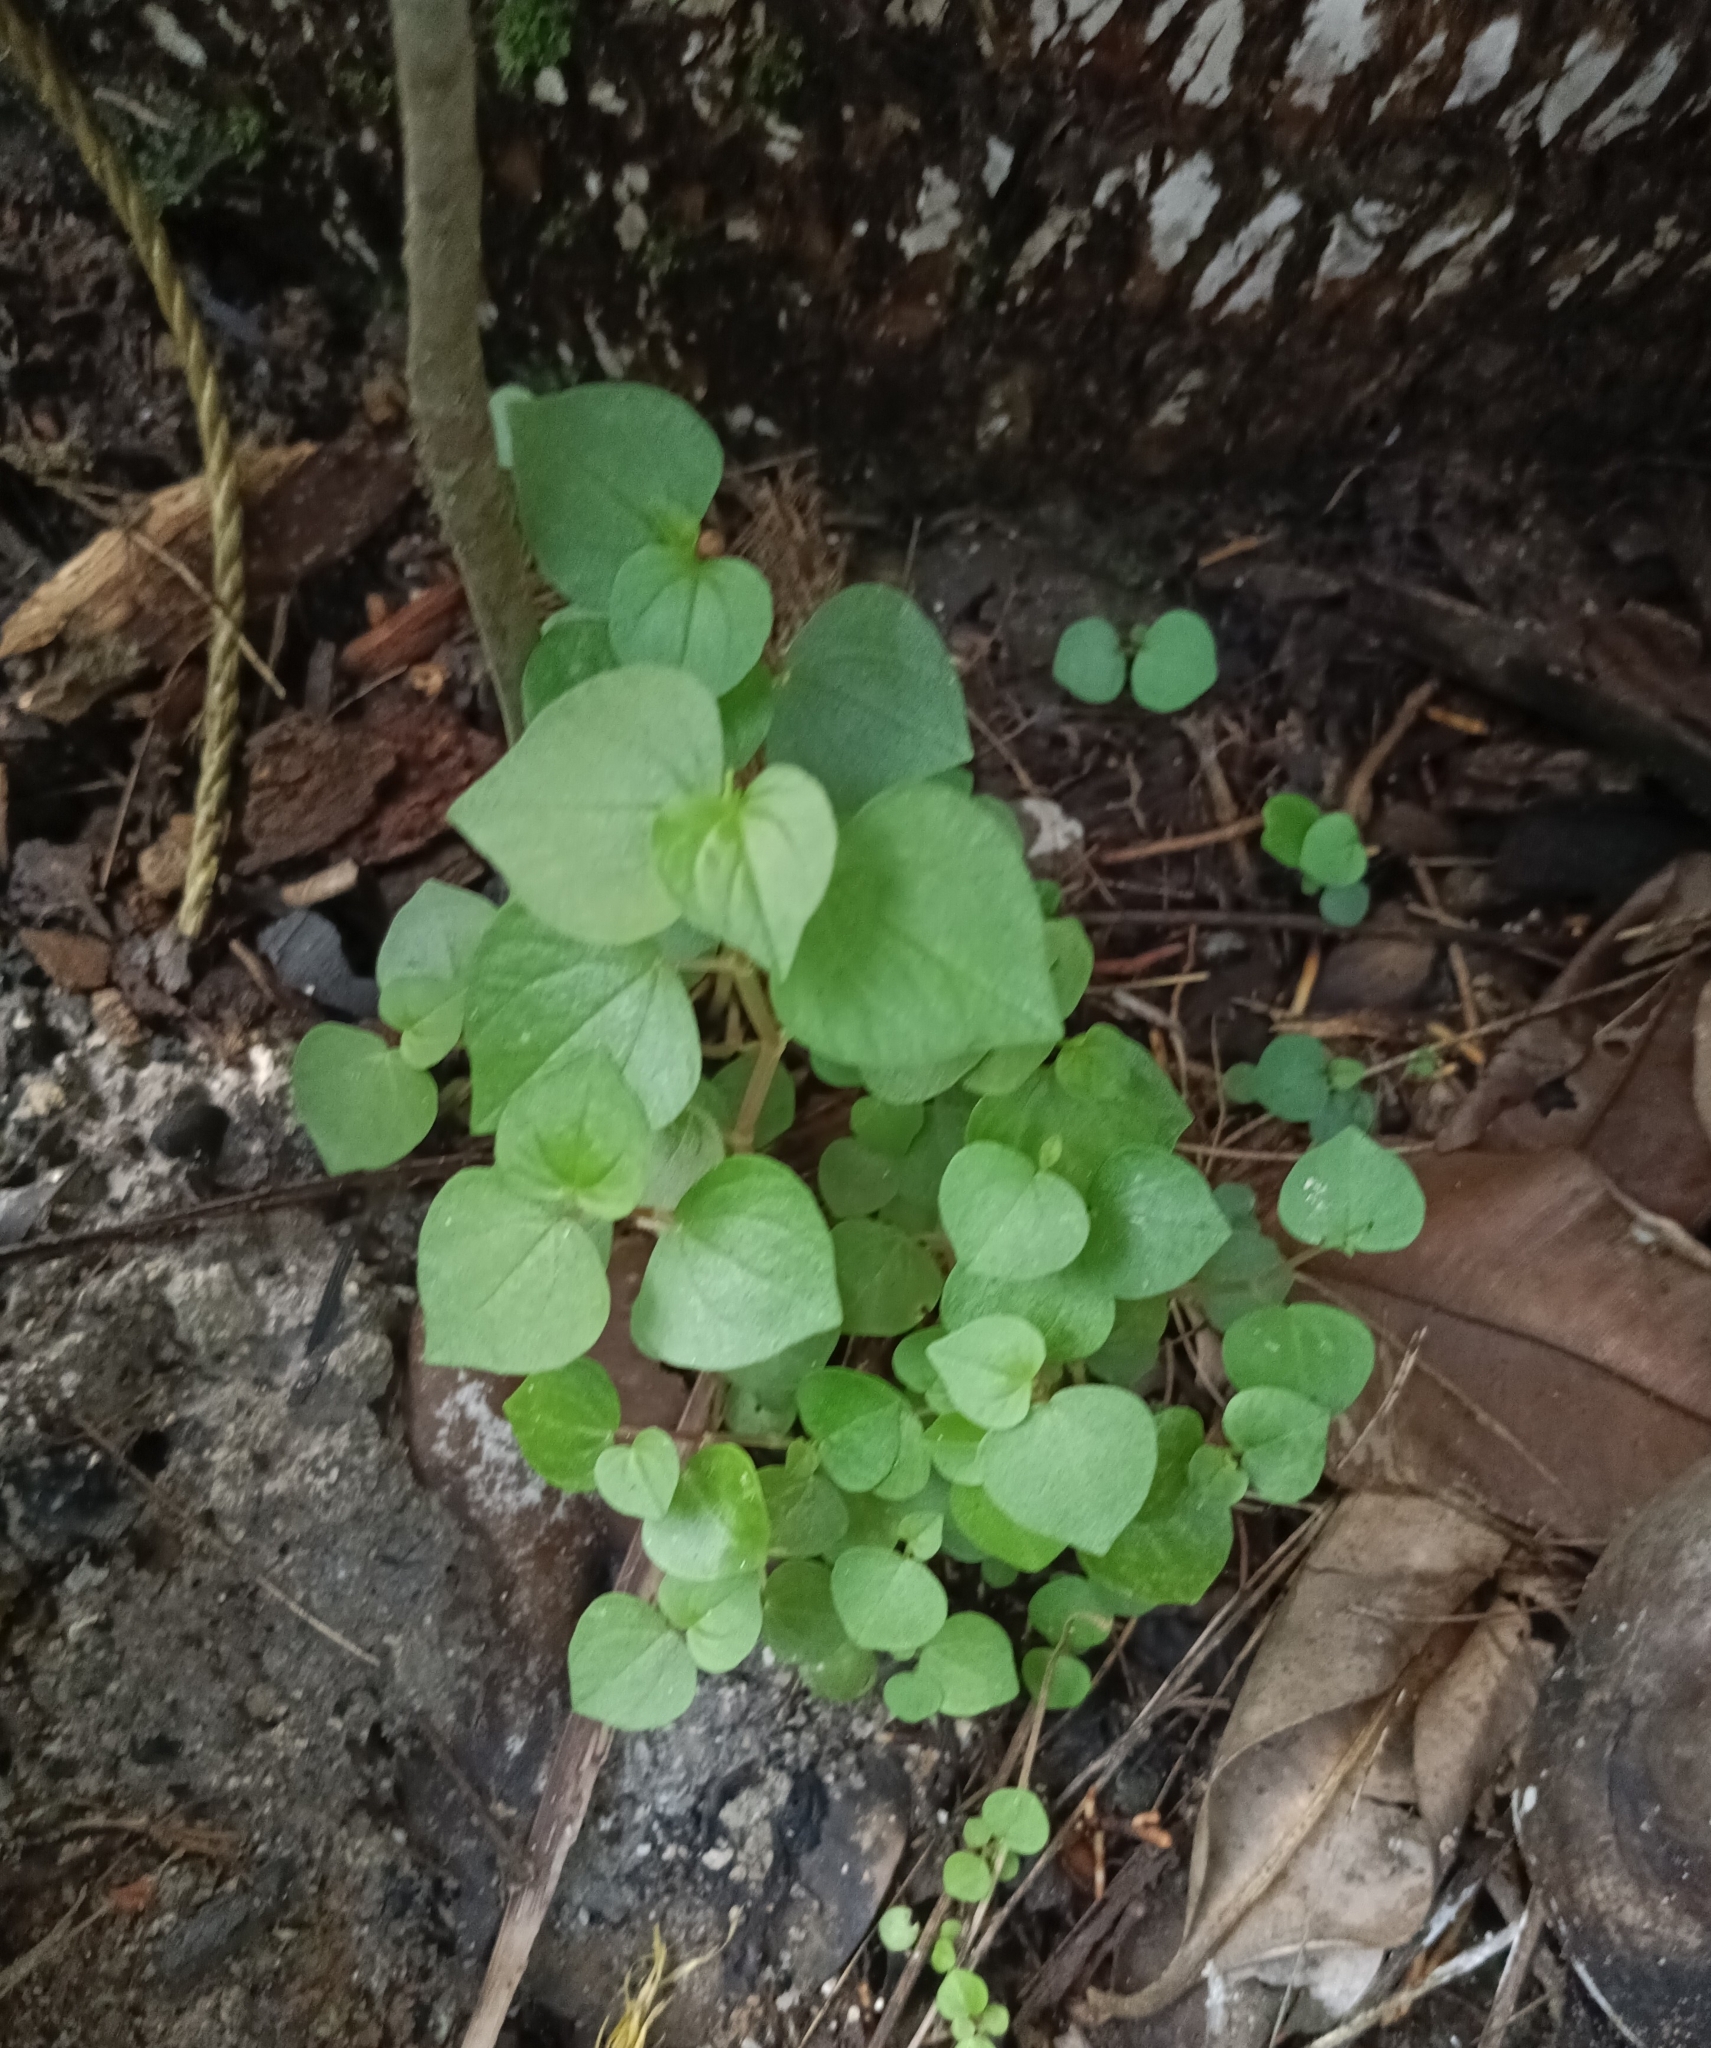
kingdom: Plantae
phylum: Tracheophyta
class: Magnoliopsida
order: Piperales
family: Piperaceae
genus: Peperomia
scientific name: Peperomia pellucida
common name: Man to man
